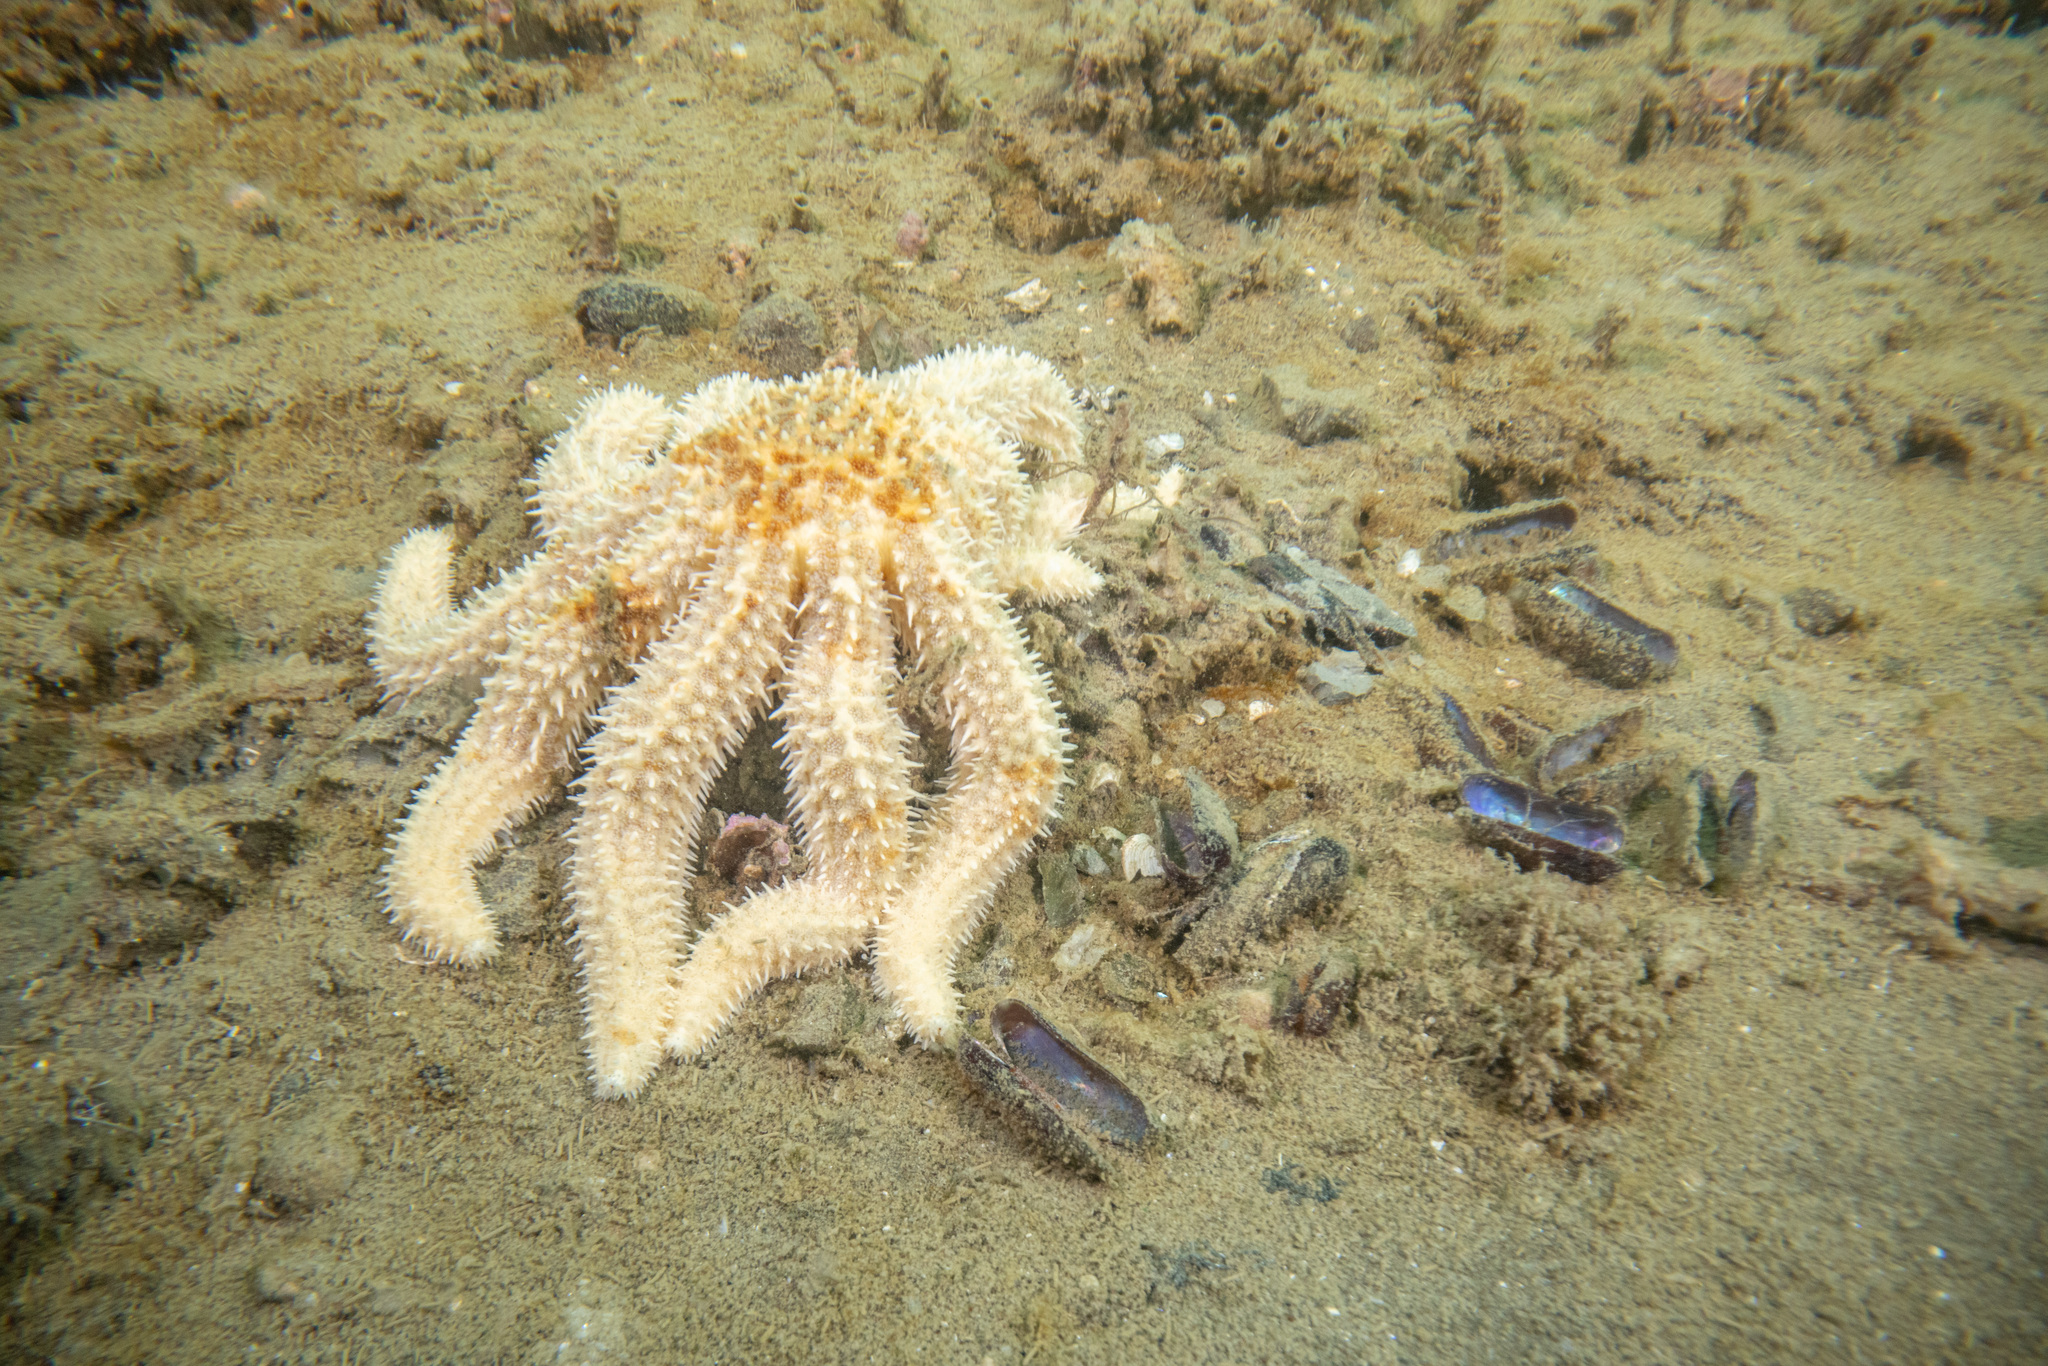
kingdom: Animalia
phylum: Echinodermata
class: Asteroidea
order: Forcipulatida
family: Asteriidae
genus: Coscinasterias
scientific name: Coscinasterias muricata
